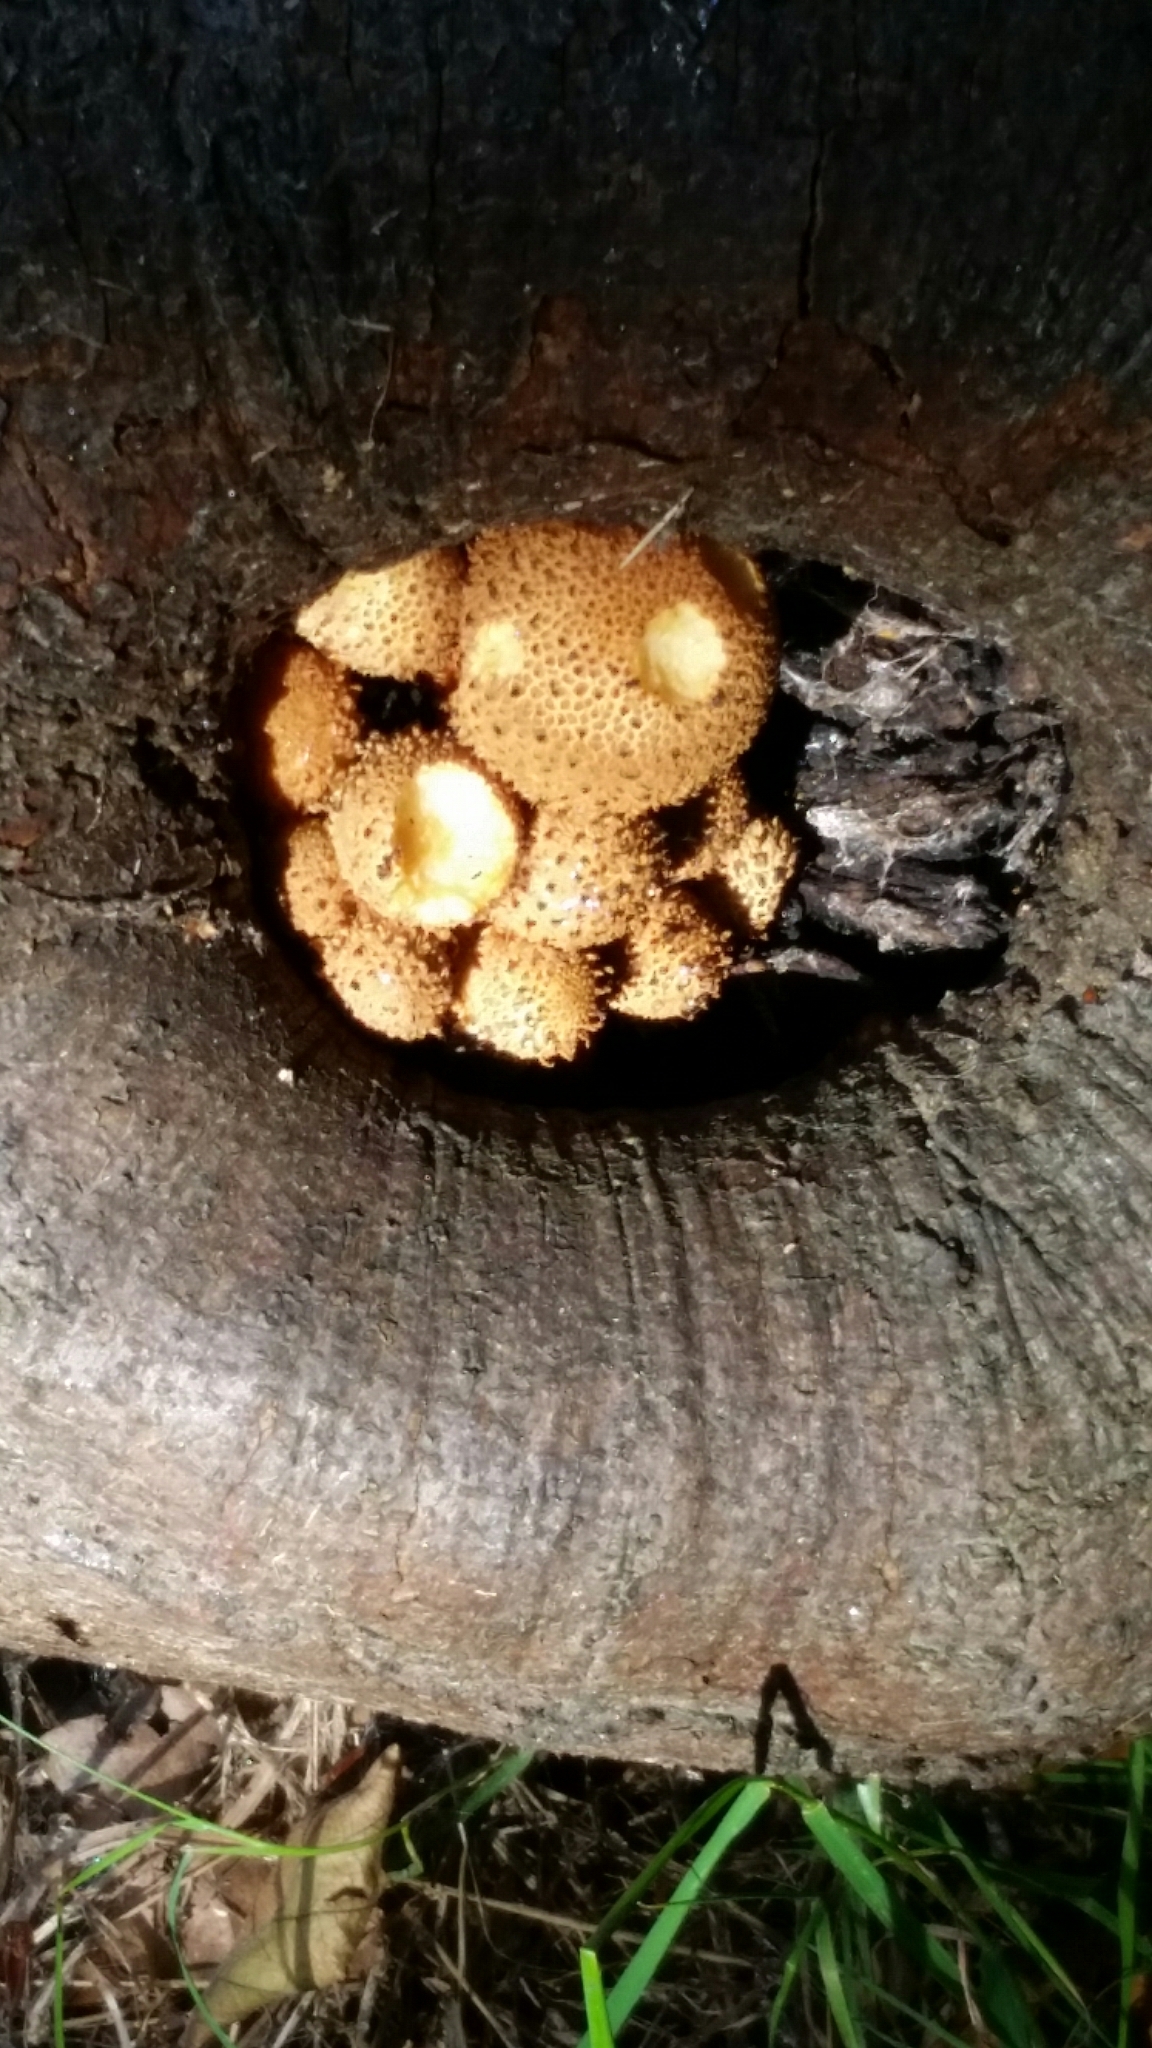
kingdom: Fungi
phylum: Basidiomycota
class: Agaricomycetes
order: Agaricales
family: Strophariaceae
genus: Pholiota
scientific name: Pholiota squarrosa
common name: Shaggy pholiota
